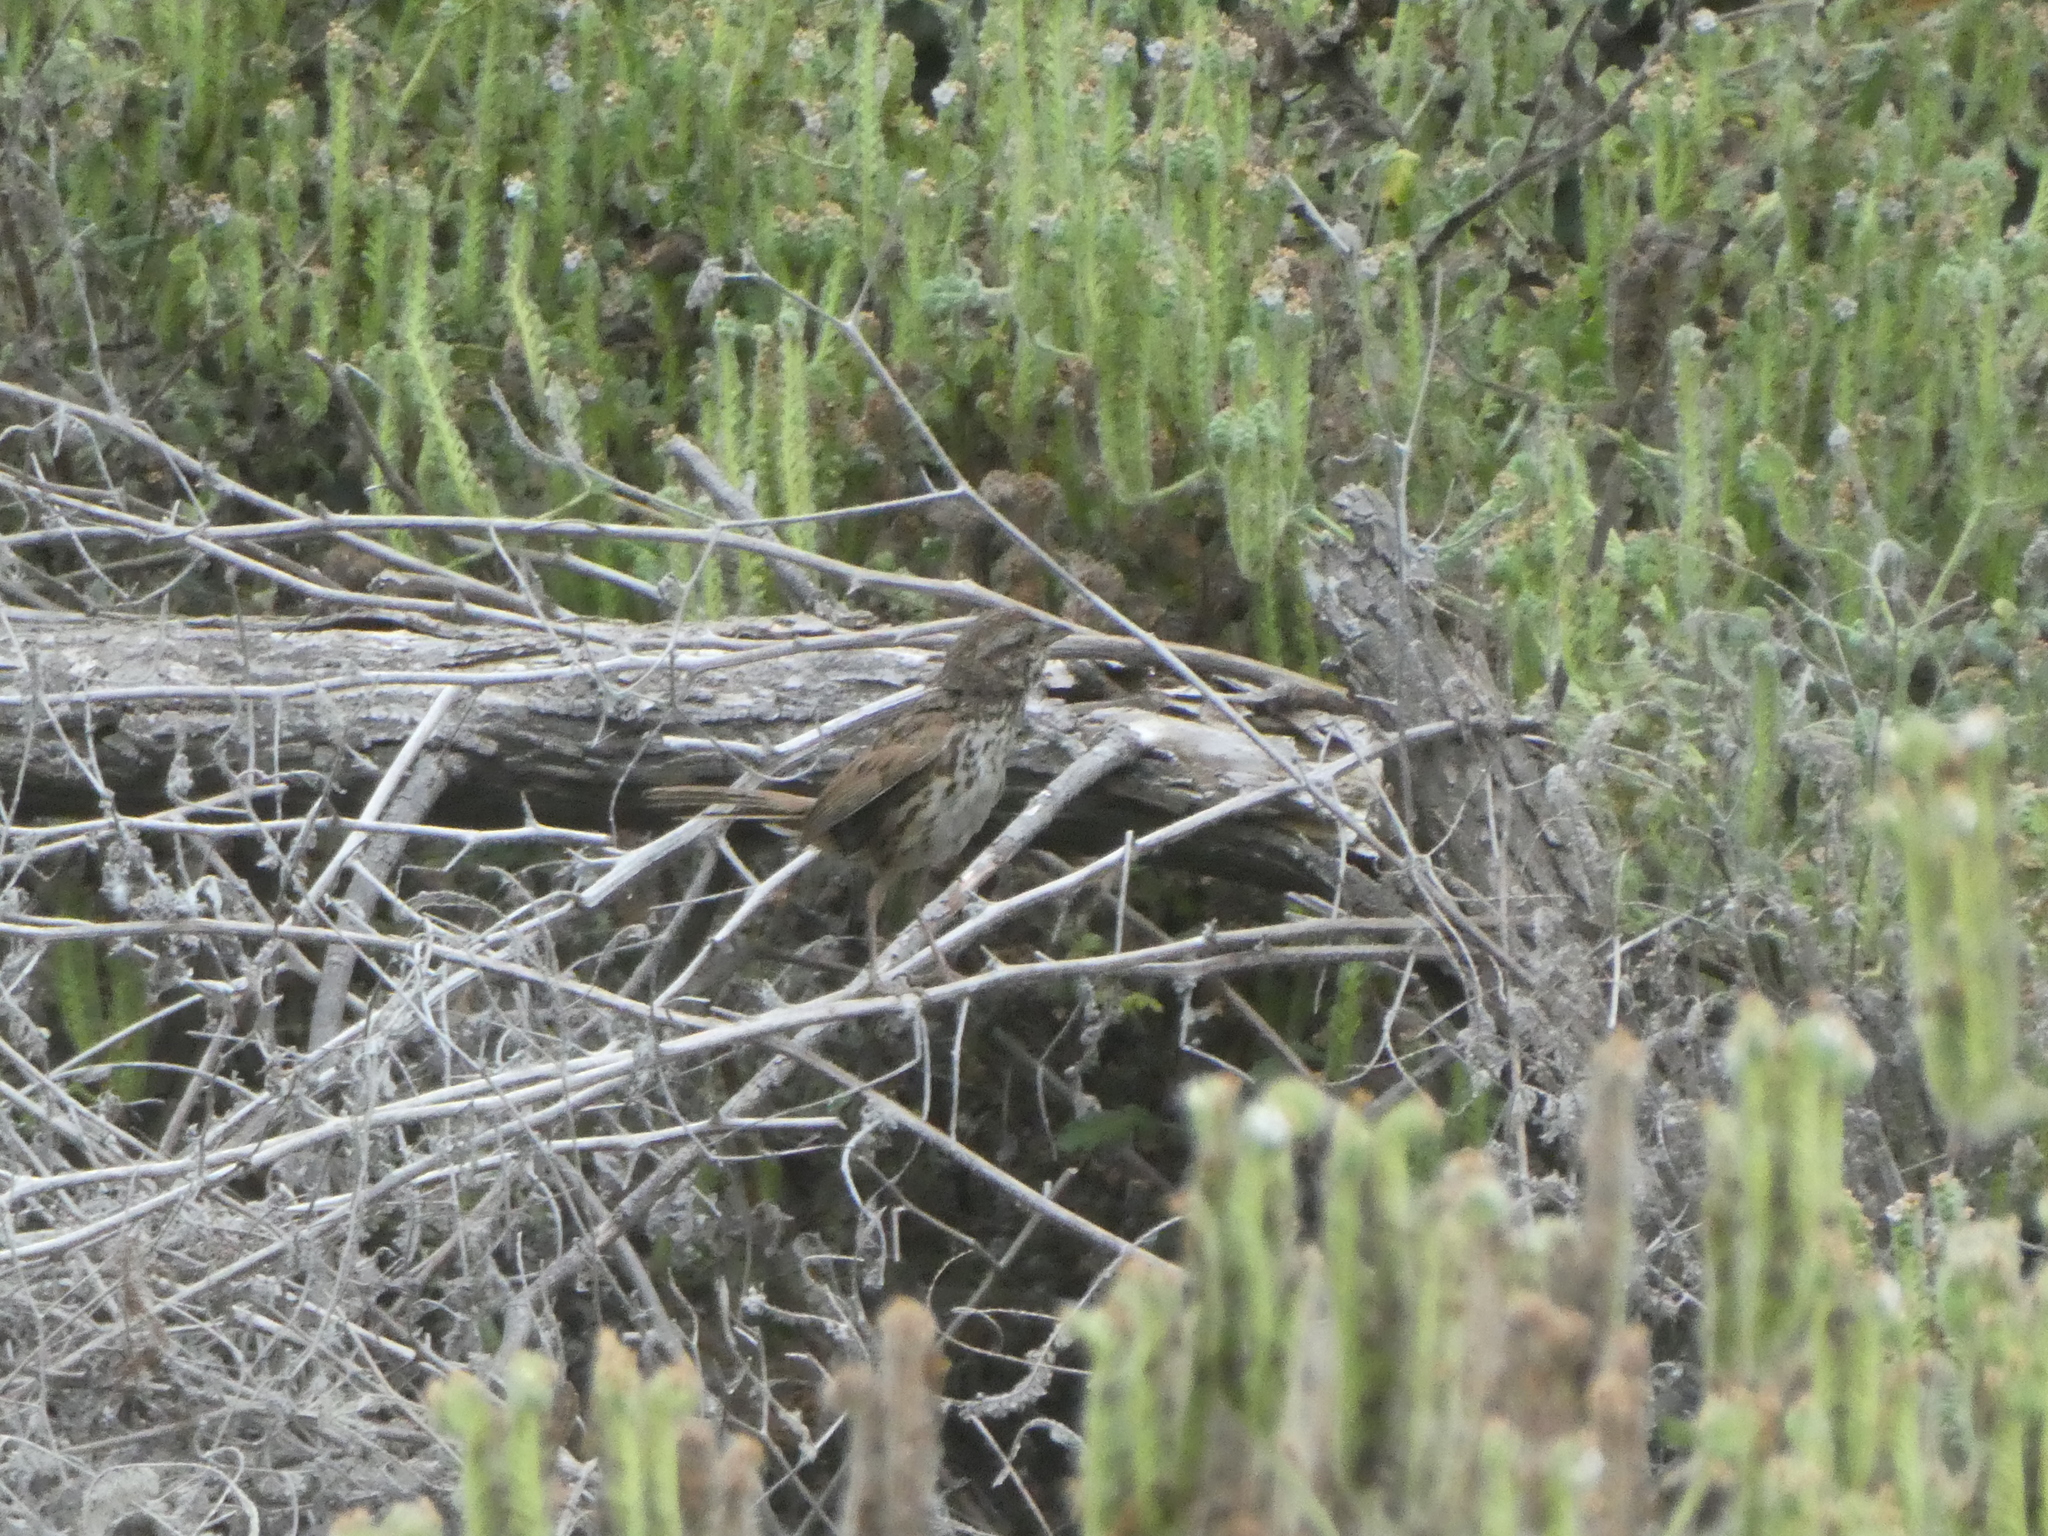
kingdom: Animalia
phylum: Chordata
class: Aves
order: Passeriformes
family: Passerellidae
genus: Melospiza
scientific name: Melospiza melodia
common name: Song sparrow
